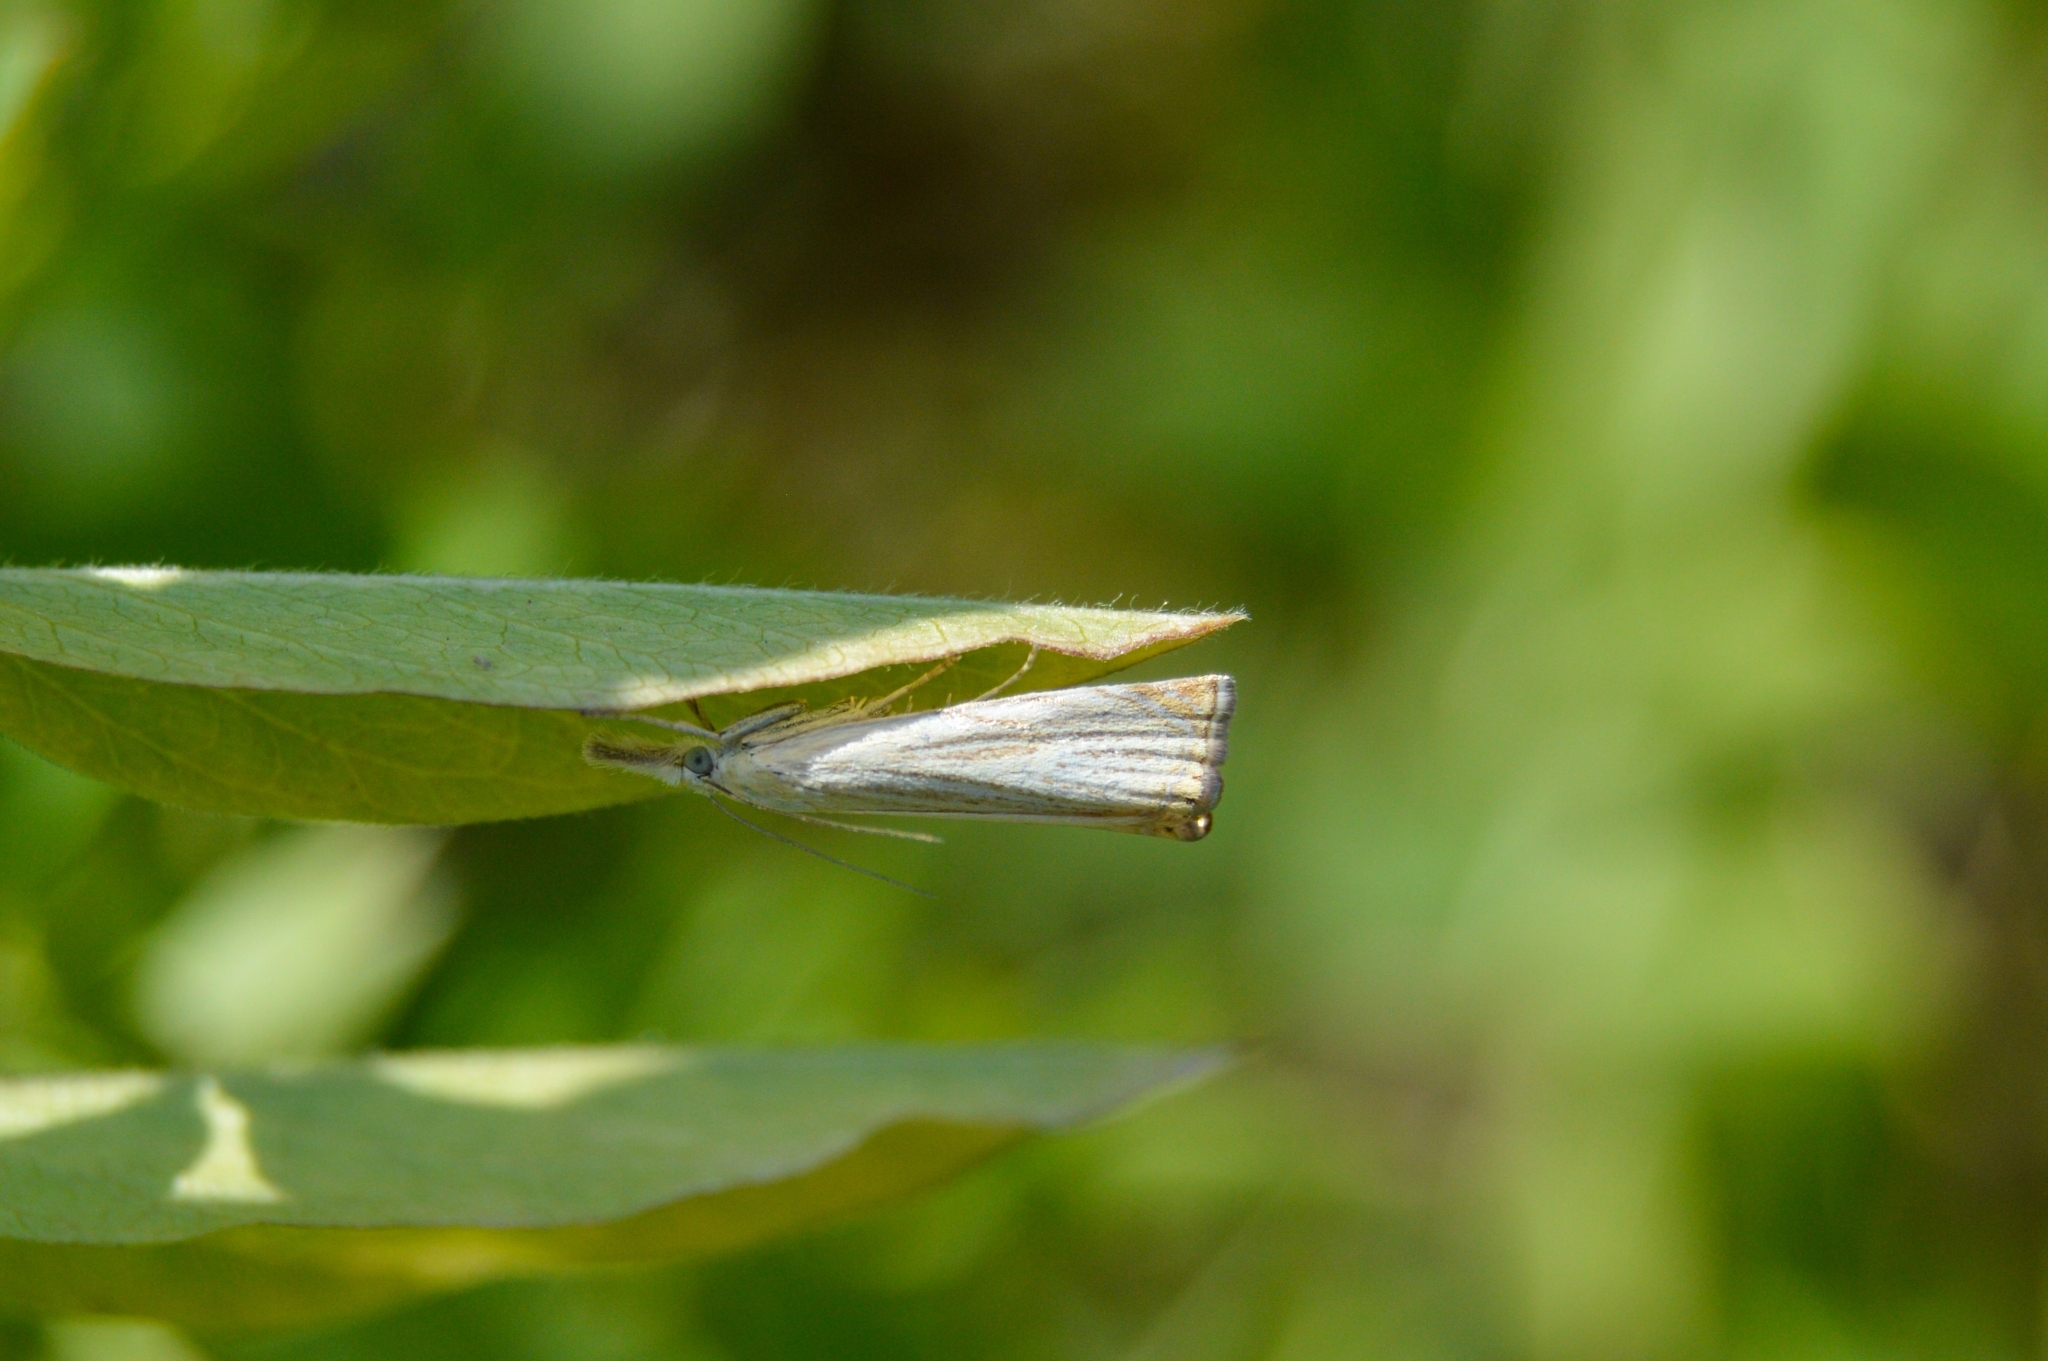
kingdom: Animalia
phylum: Arthropoda
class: Insecta
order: Lepidoptera
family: Crambidae
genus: Chrysoteuchia
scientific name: Chrysoteuchia culmella
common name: Garden grass-veneer
